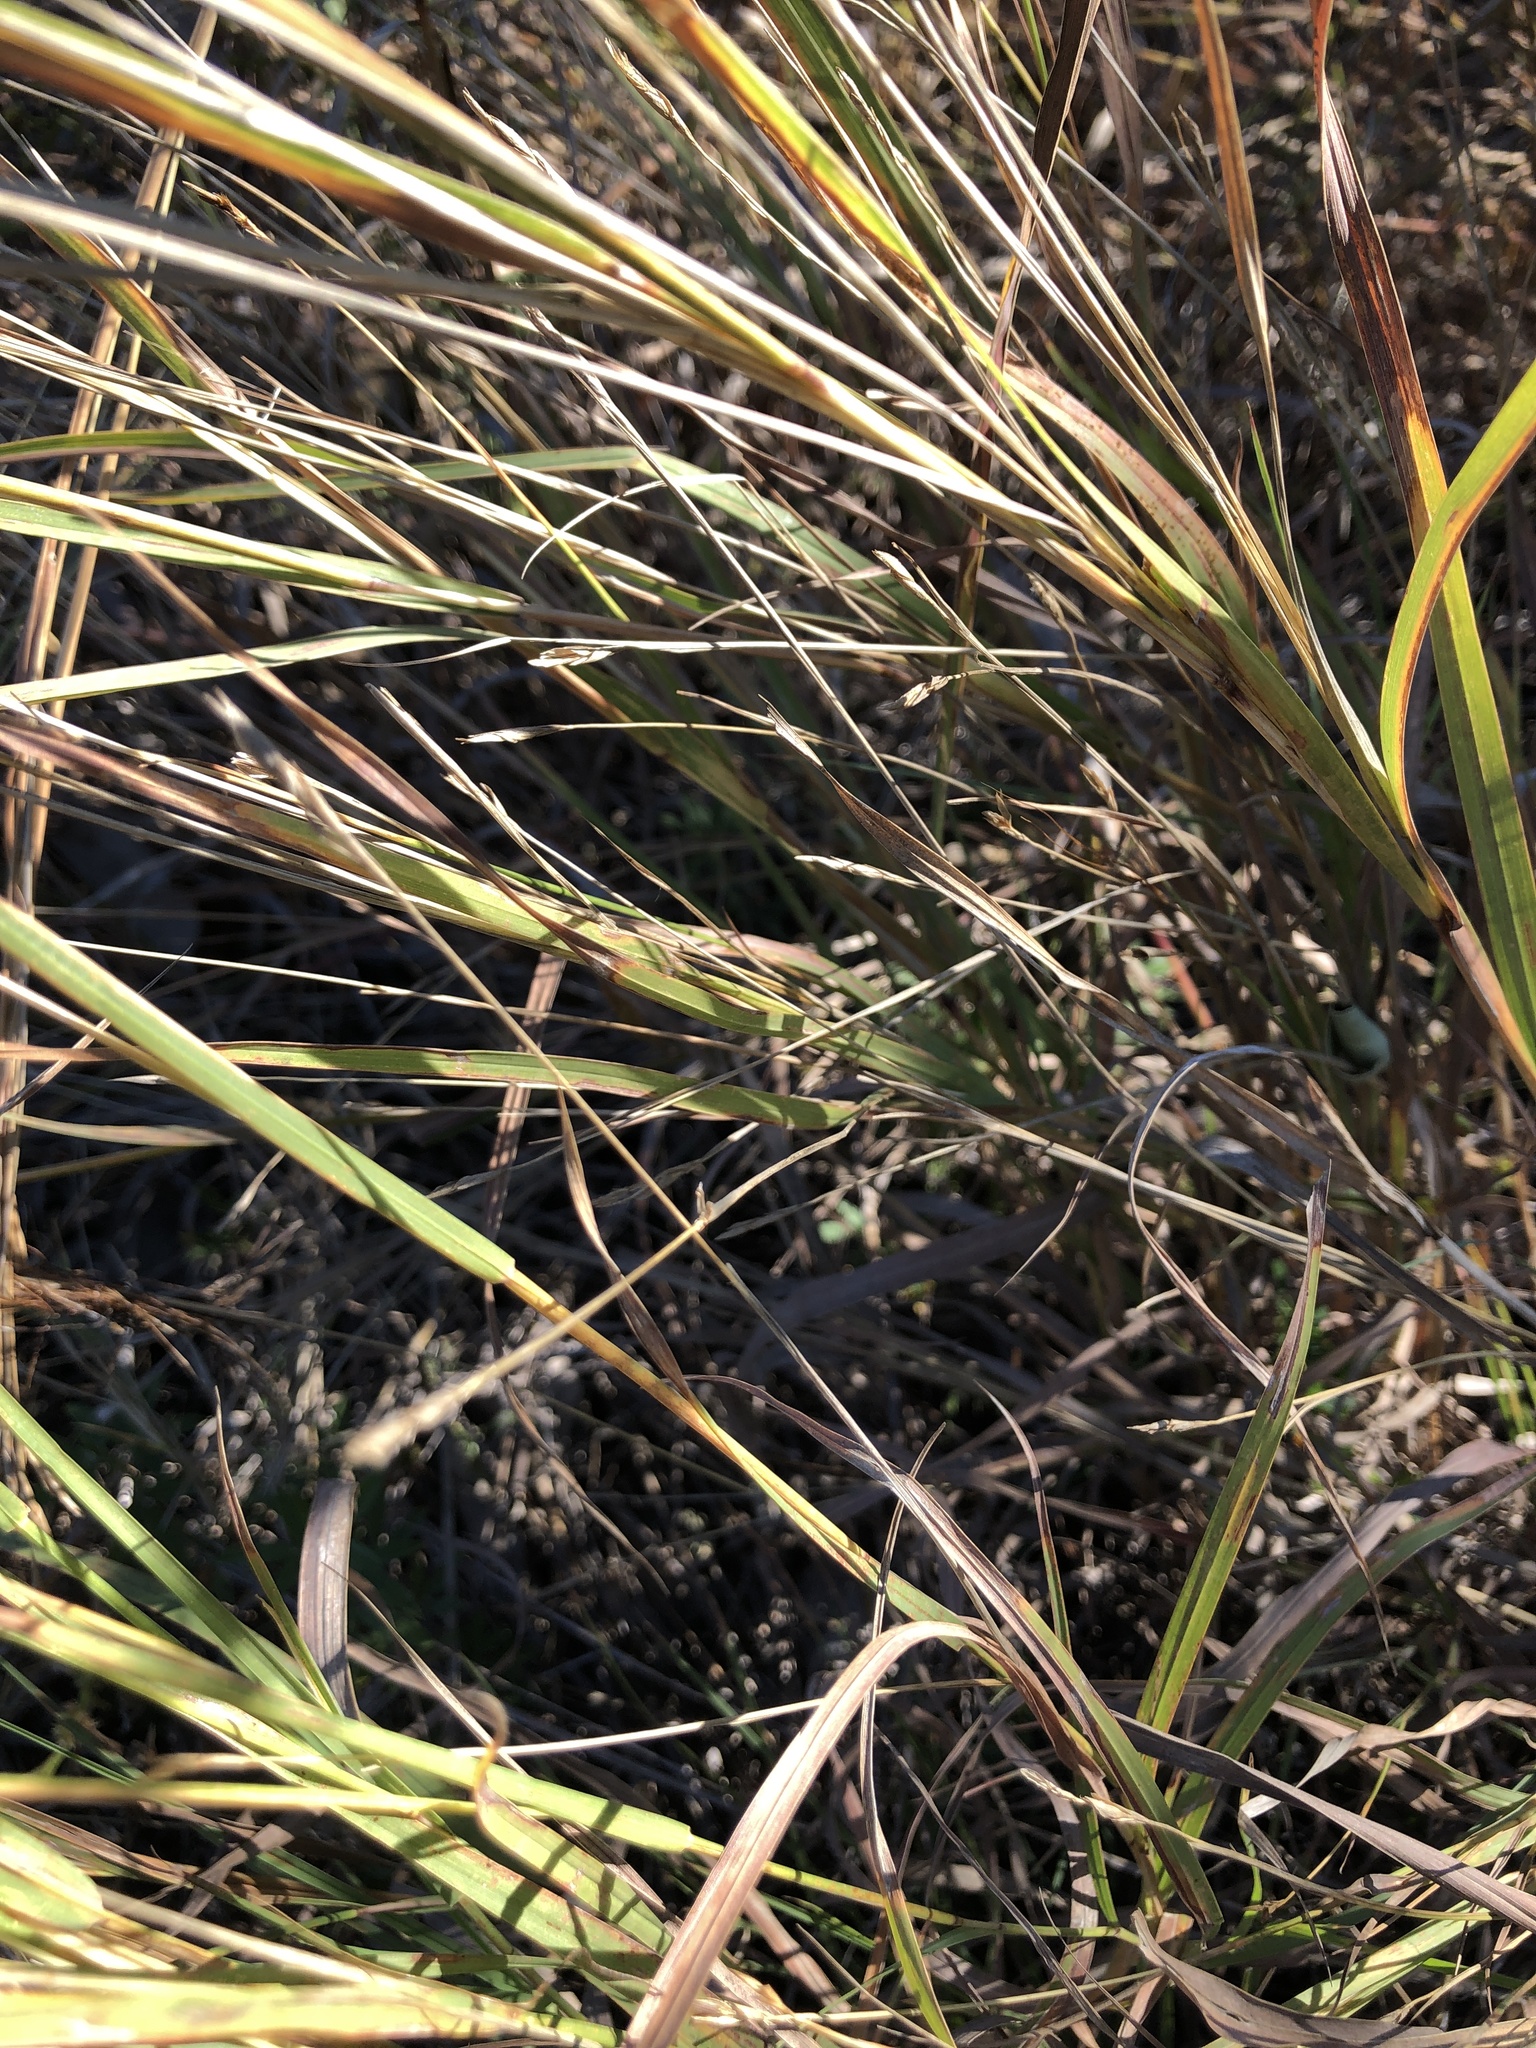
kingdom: Plantae
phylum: Tracheophyta
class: Liliopsida
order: Poales
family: Poaceae
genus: Heteropogon
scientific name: Heteropogon contortus
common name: Tanglehead
